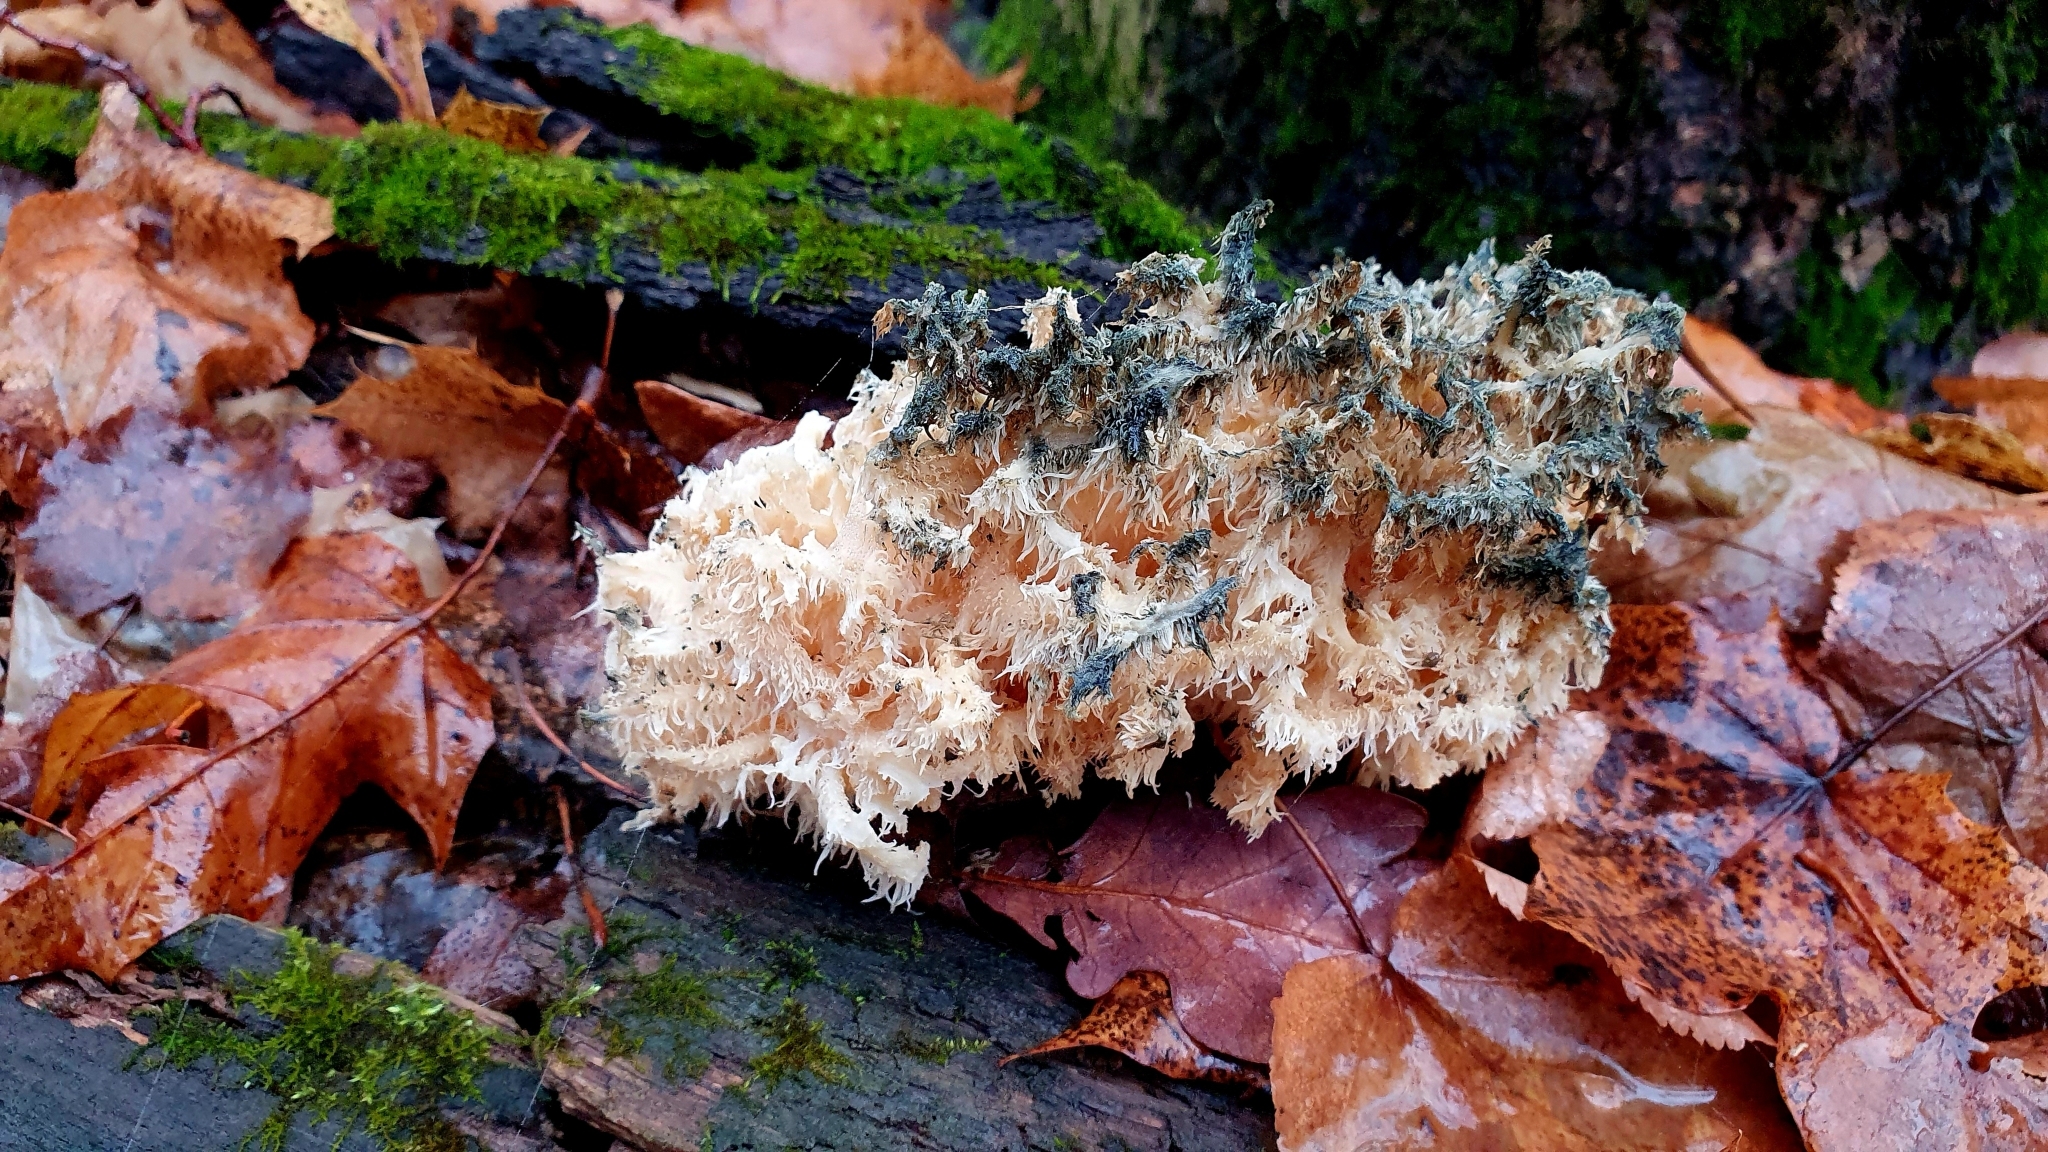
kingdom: Fungi
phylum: Basidiomycota
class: Agaricomycetes
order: Russulales
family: Hericiaceae
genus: Hericium
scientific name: Hericium coralloides
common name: Coral tooth
